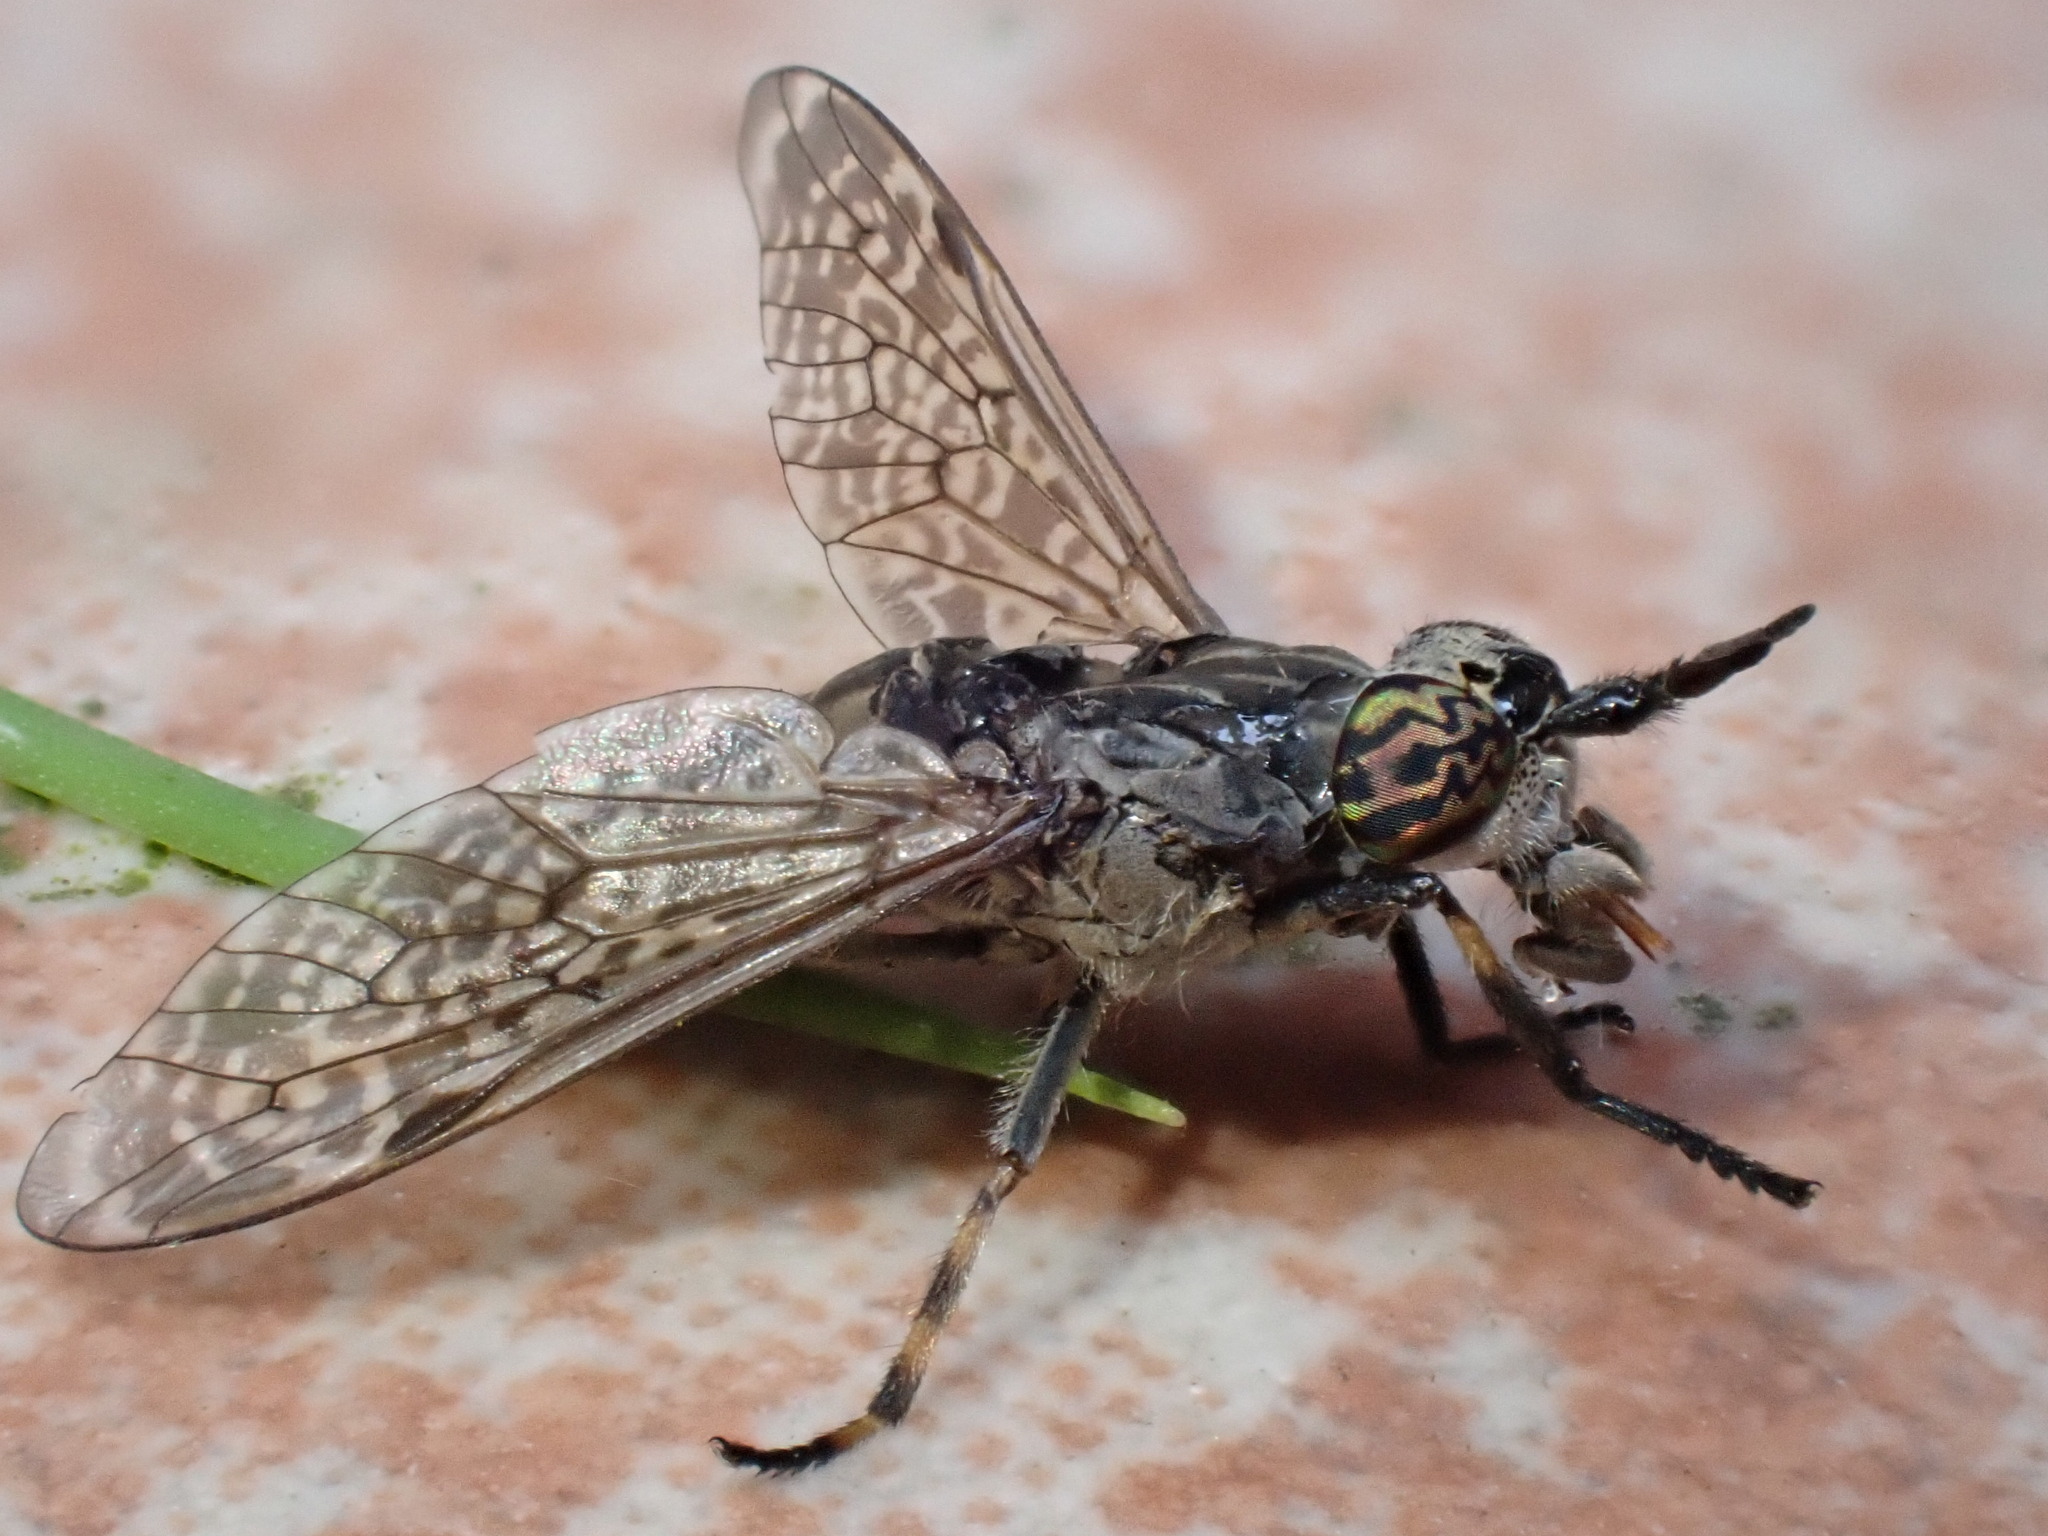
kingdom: Animalia
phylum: Arthropoda
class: Insecta
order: Diptera
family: Tabanidae
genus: Haematopota
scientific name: Haematopota pluvialis
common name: Common horse fly
